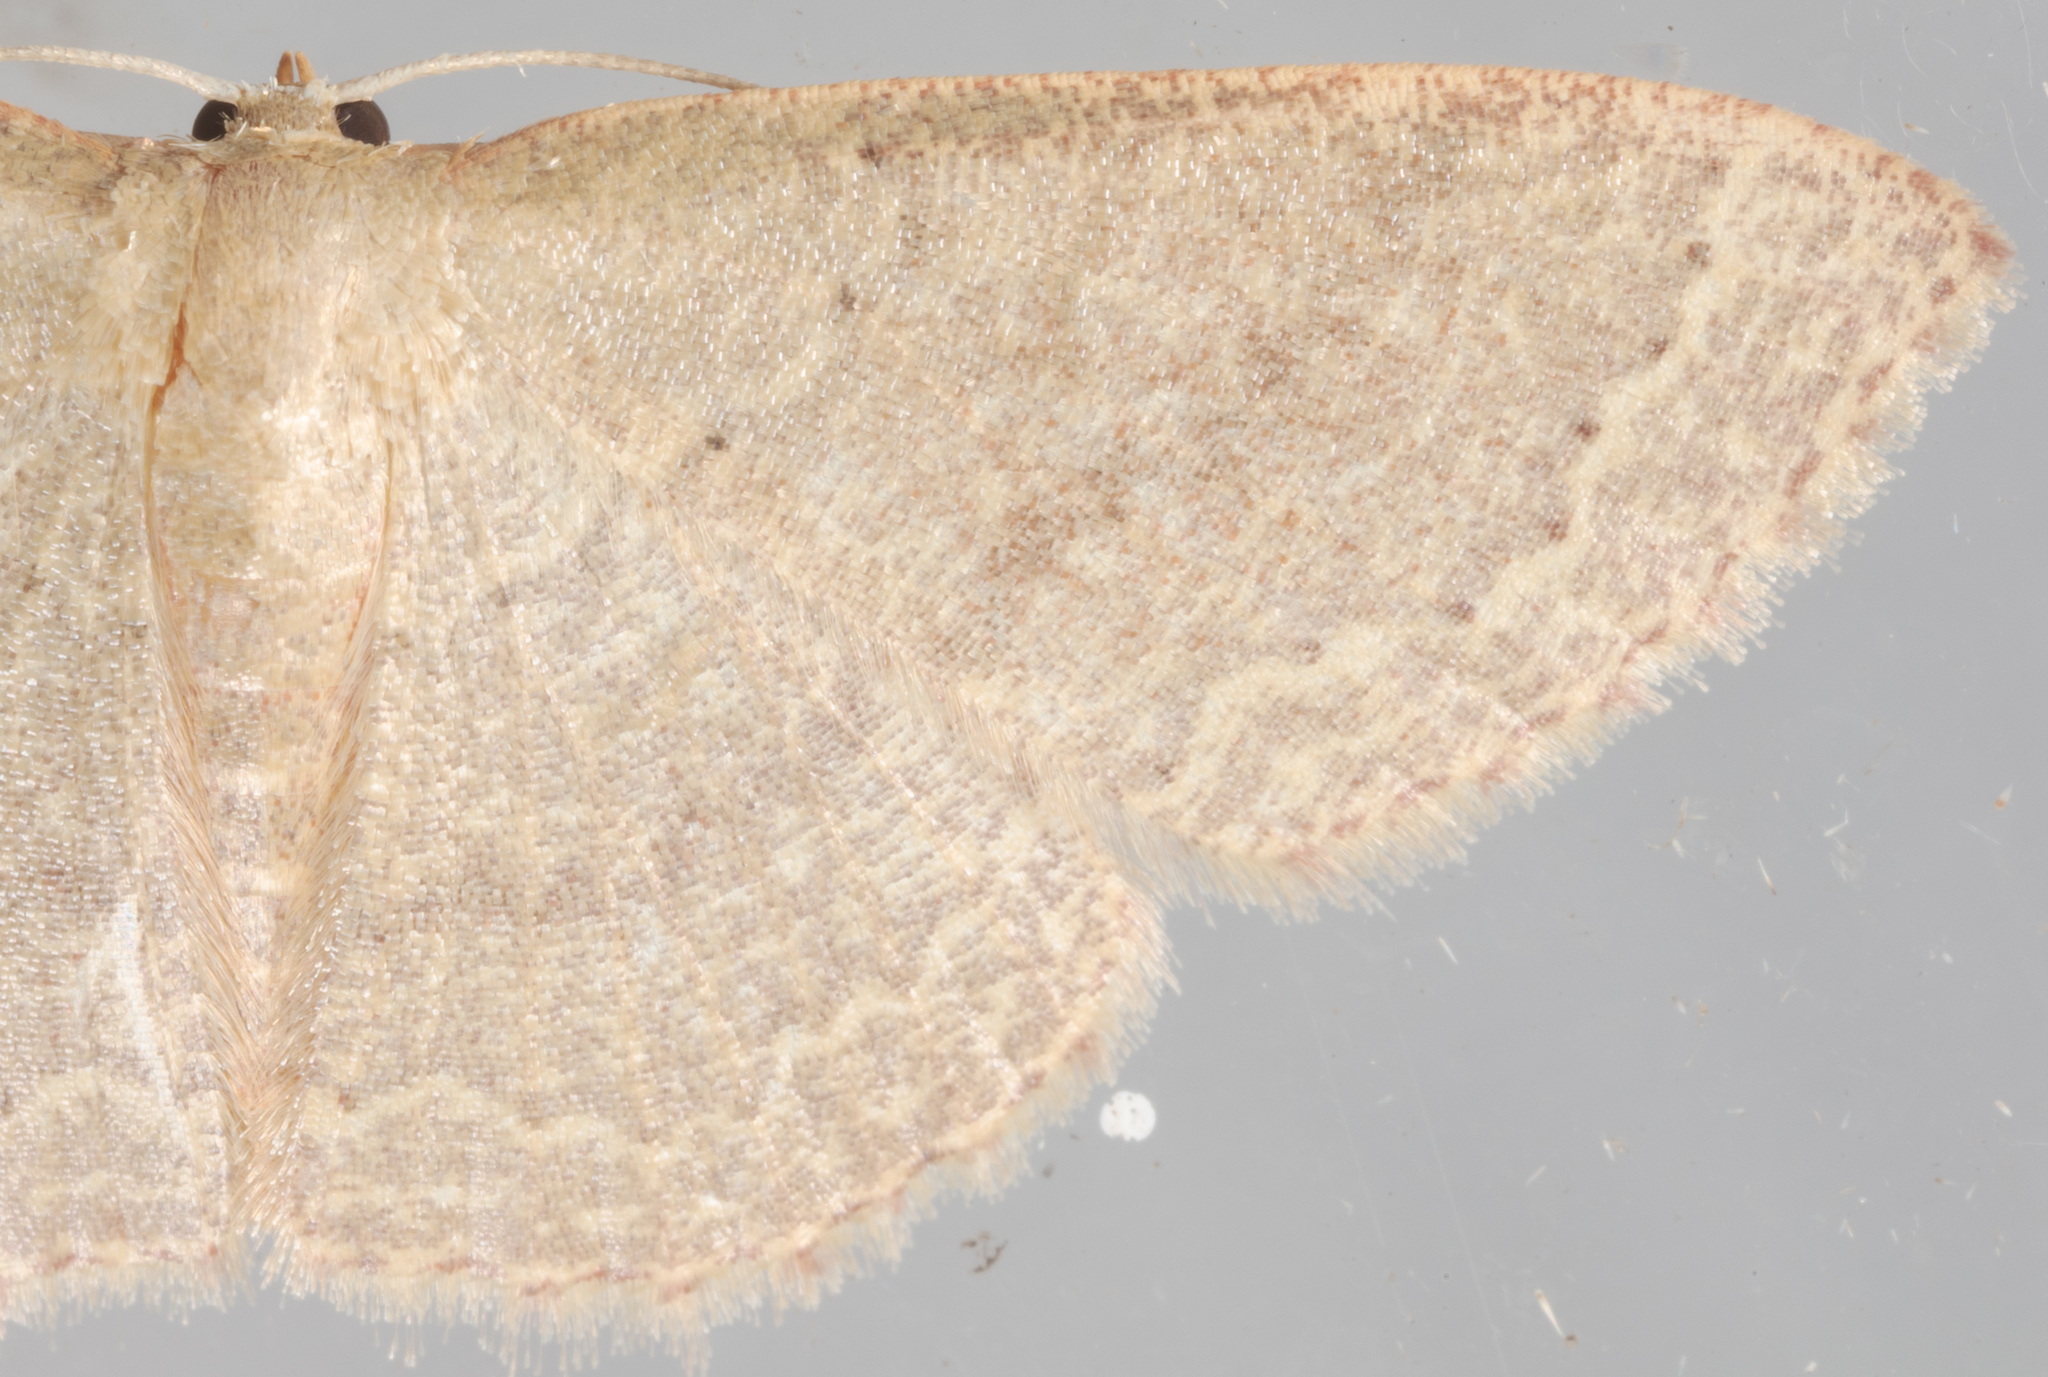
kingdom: Animalia
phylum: Arthropoda
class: Insecta
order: Lepidoptera
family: Geometridae
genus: Pleuroprucha
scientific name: Pleuroprucha insulsaria
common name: Common tan wave
